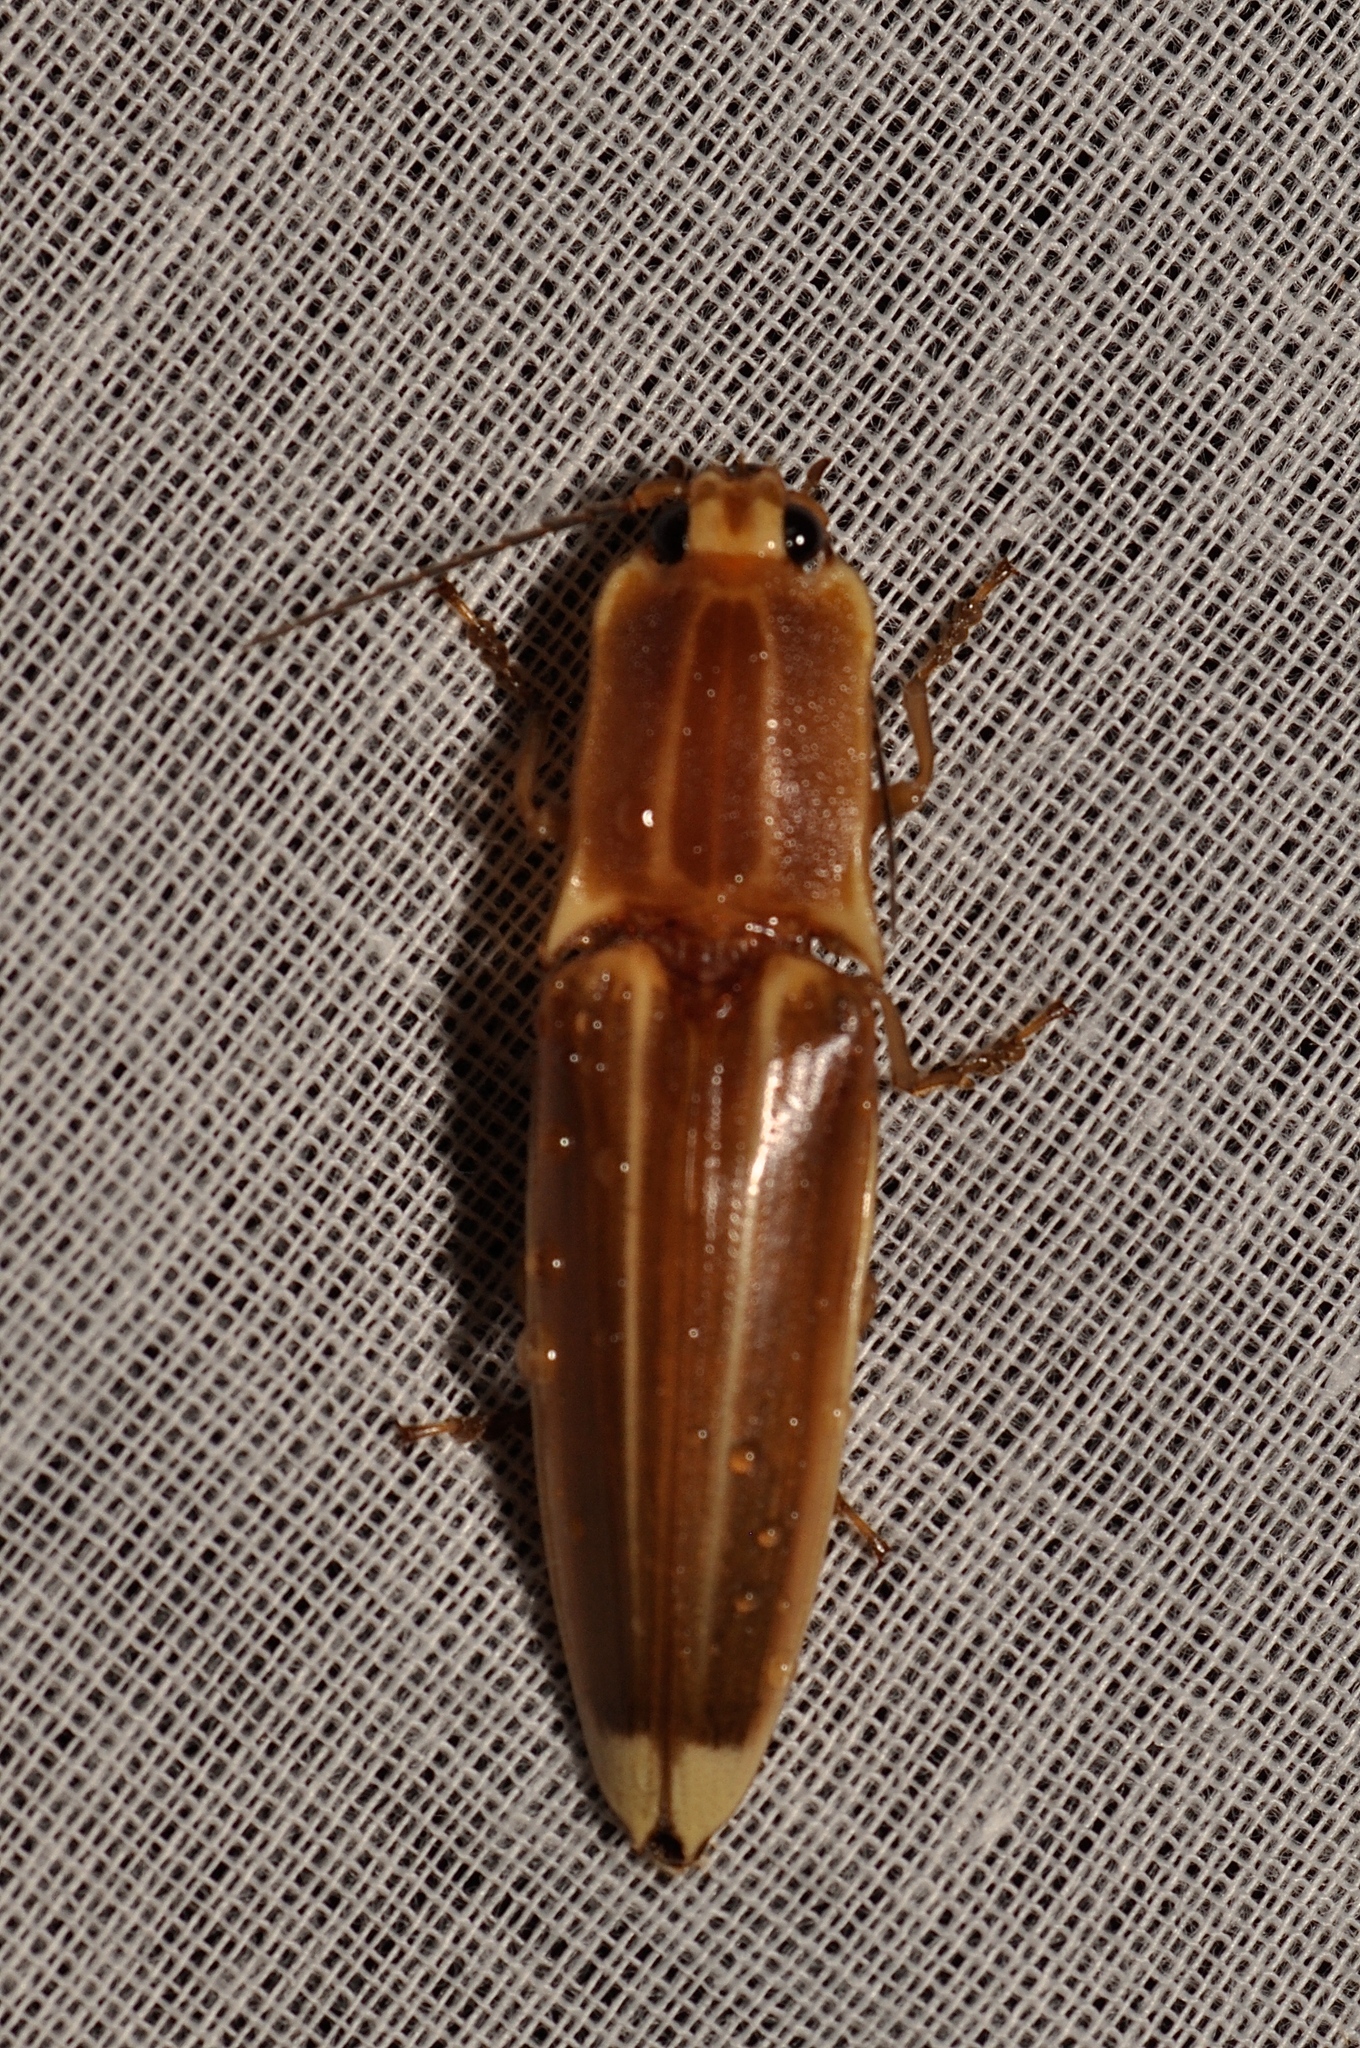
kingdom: Animalia
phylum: Arthropoda
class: Insecta
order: Coleoptera
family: Elateridae
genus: Semiotus
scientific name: Semiotus ligneus
